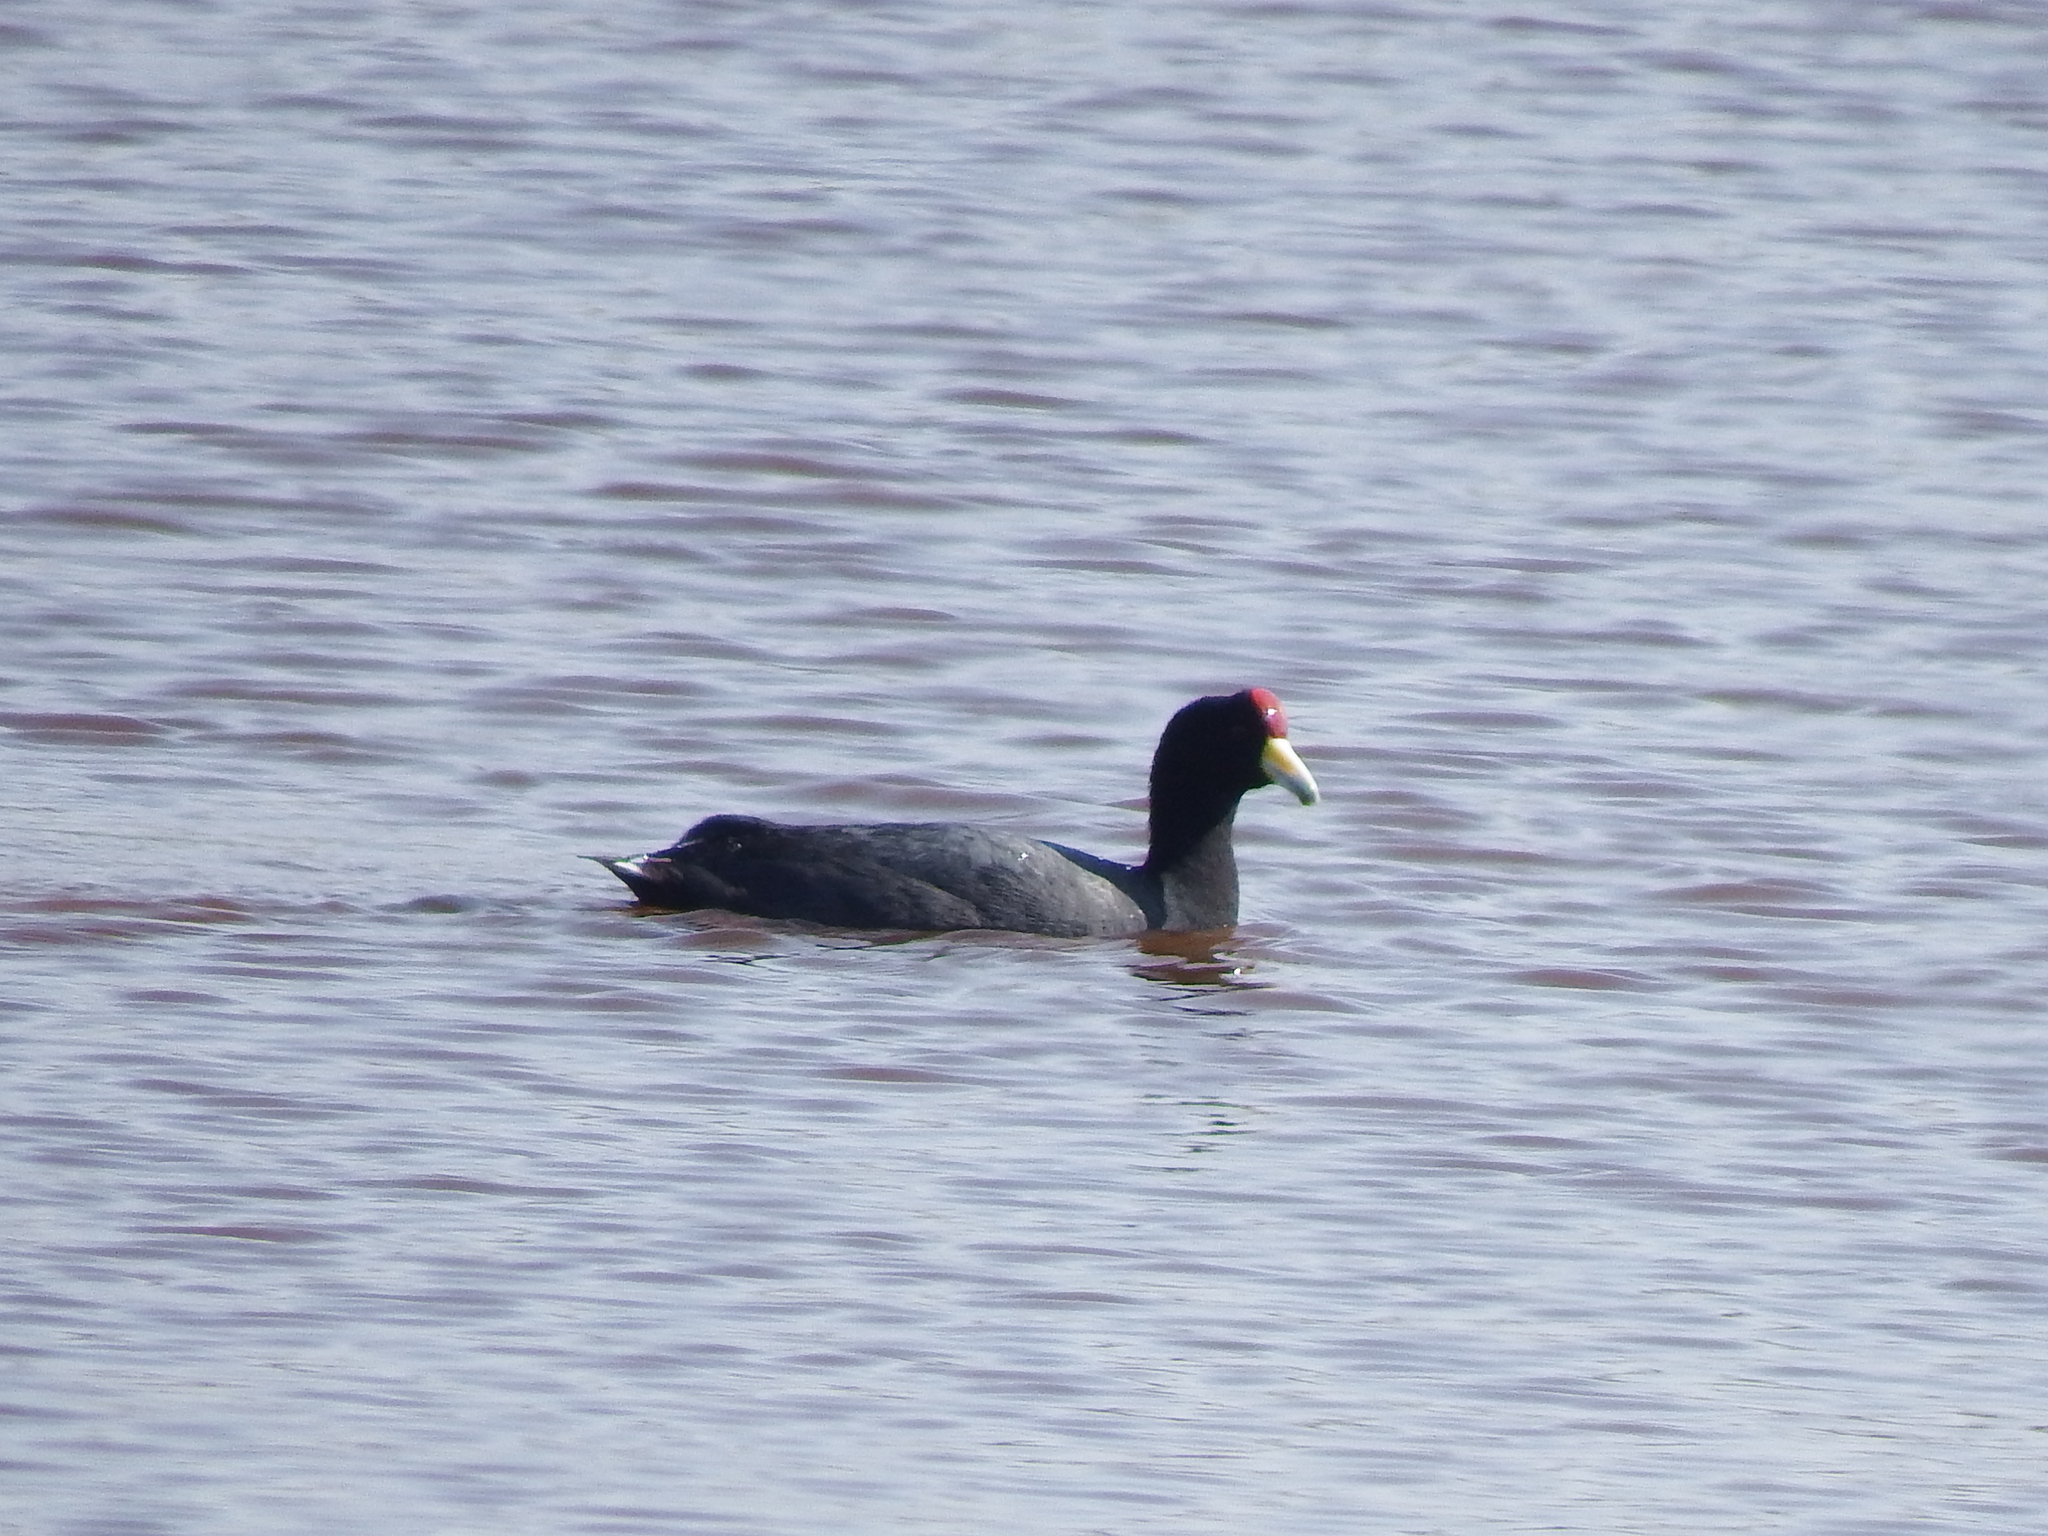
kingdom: Animalia
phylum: Chordata
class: Aves
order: Gruiformes
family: Rallidae
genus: Fulica
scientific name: Fulica ardesiaca
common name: Andean coot
